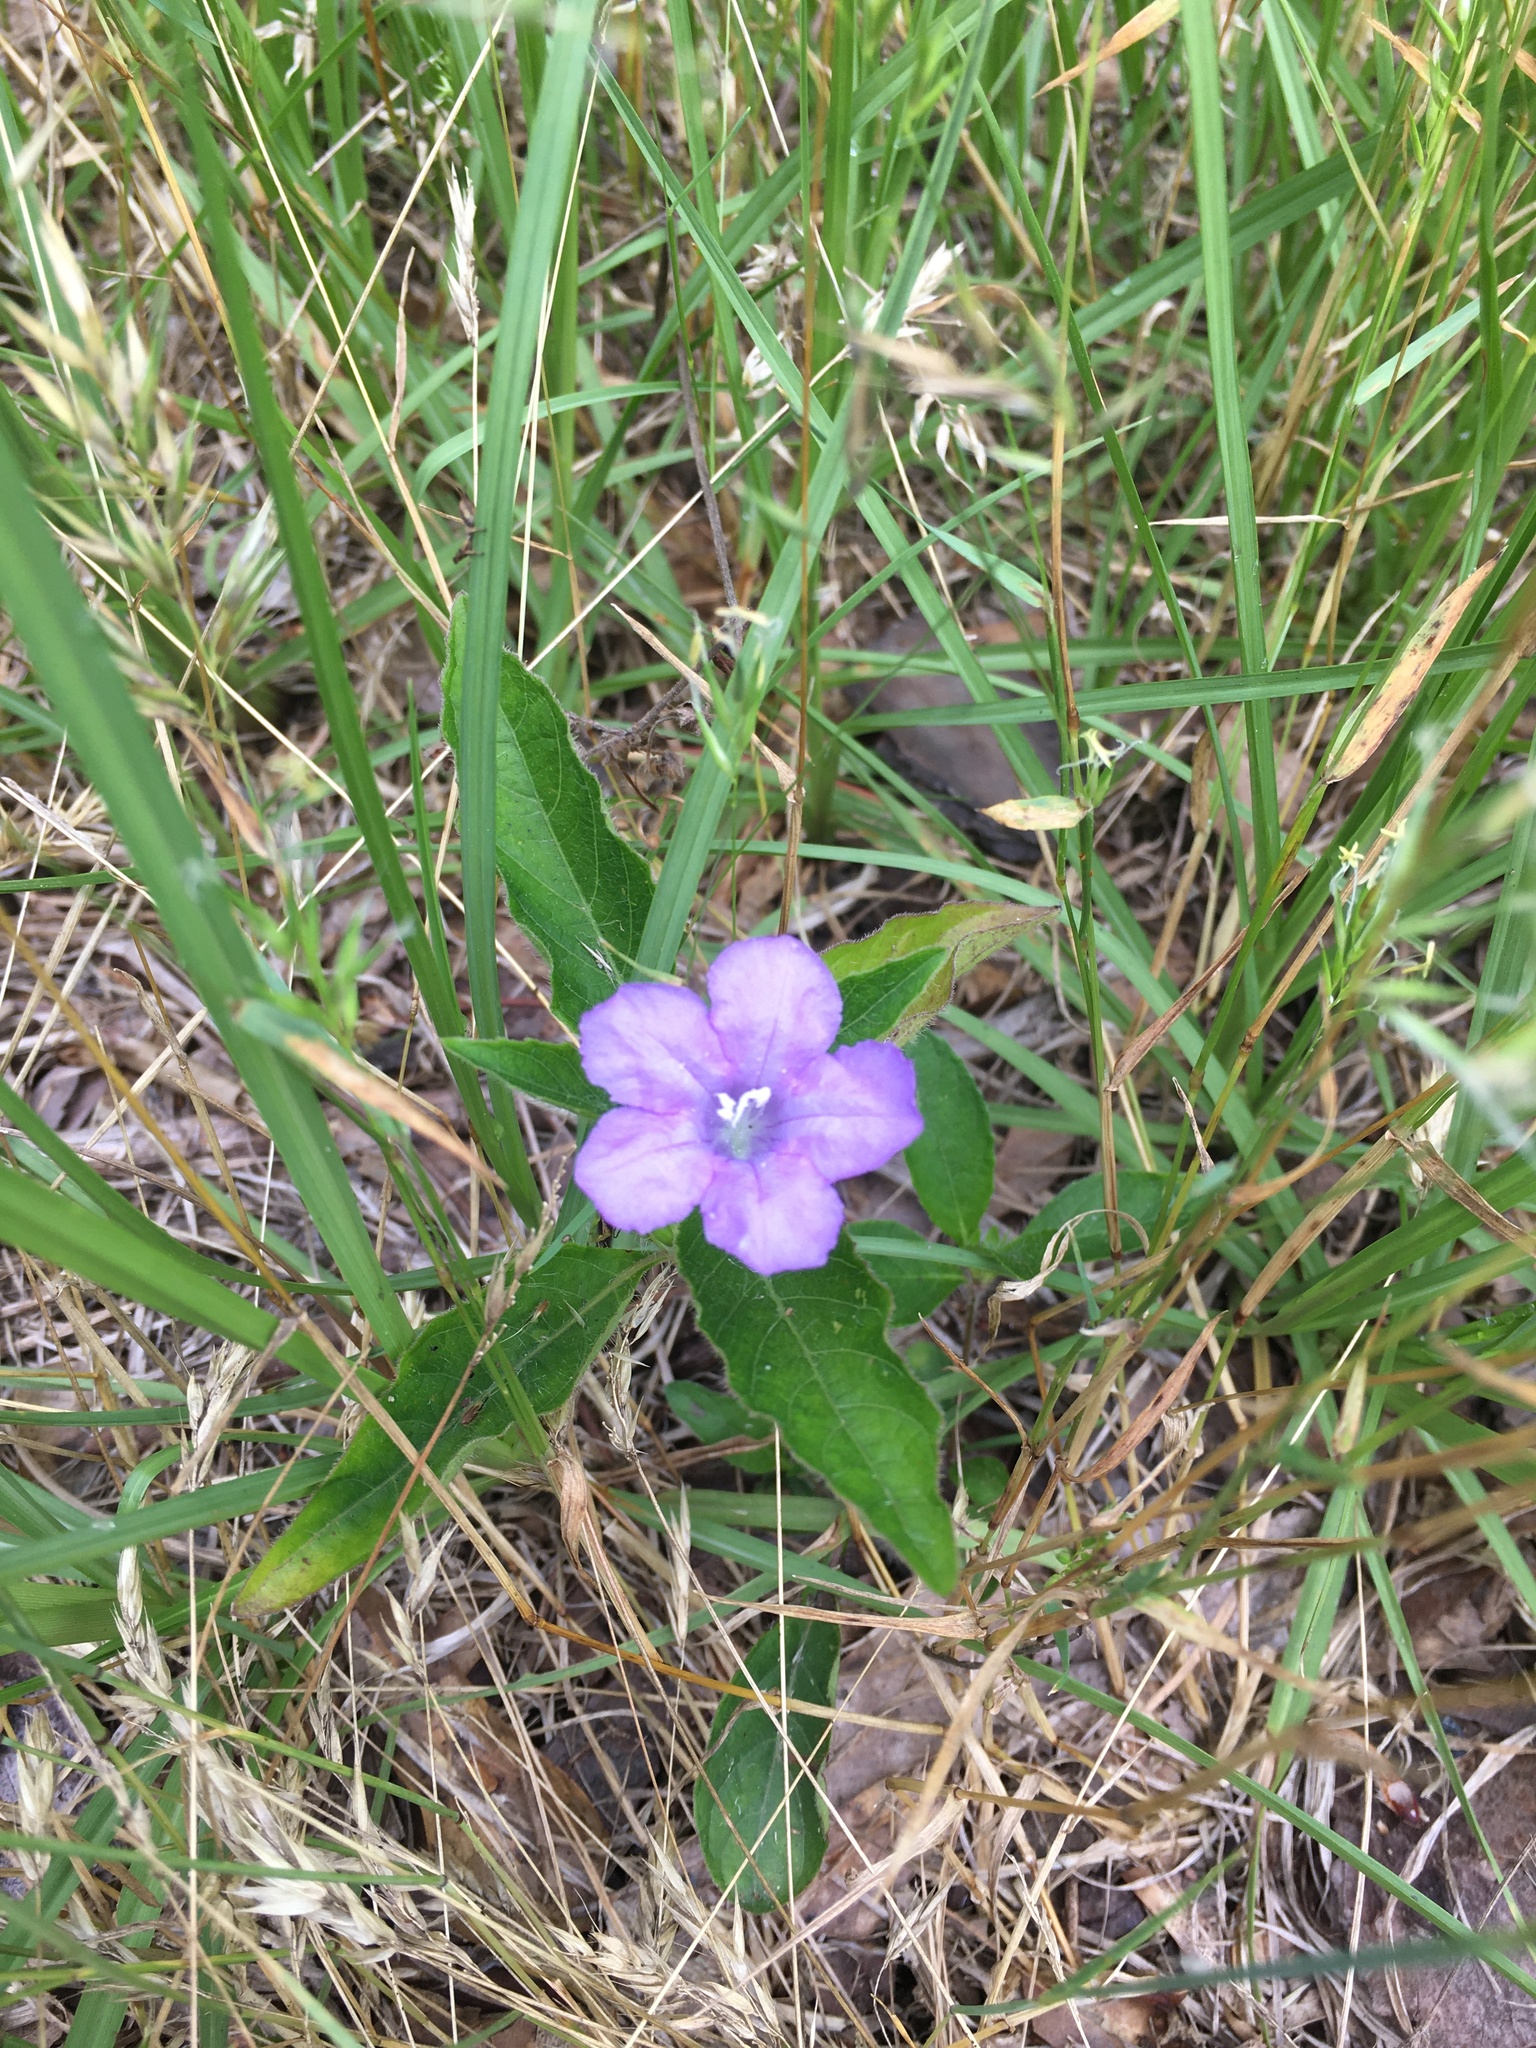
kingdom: Plantae
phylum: Tracheophyta
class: Magnoliopsida
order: Lamiales
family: Acanthaceae
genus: Ruellia
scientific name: Ruellia caroliniensis
